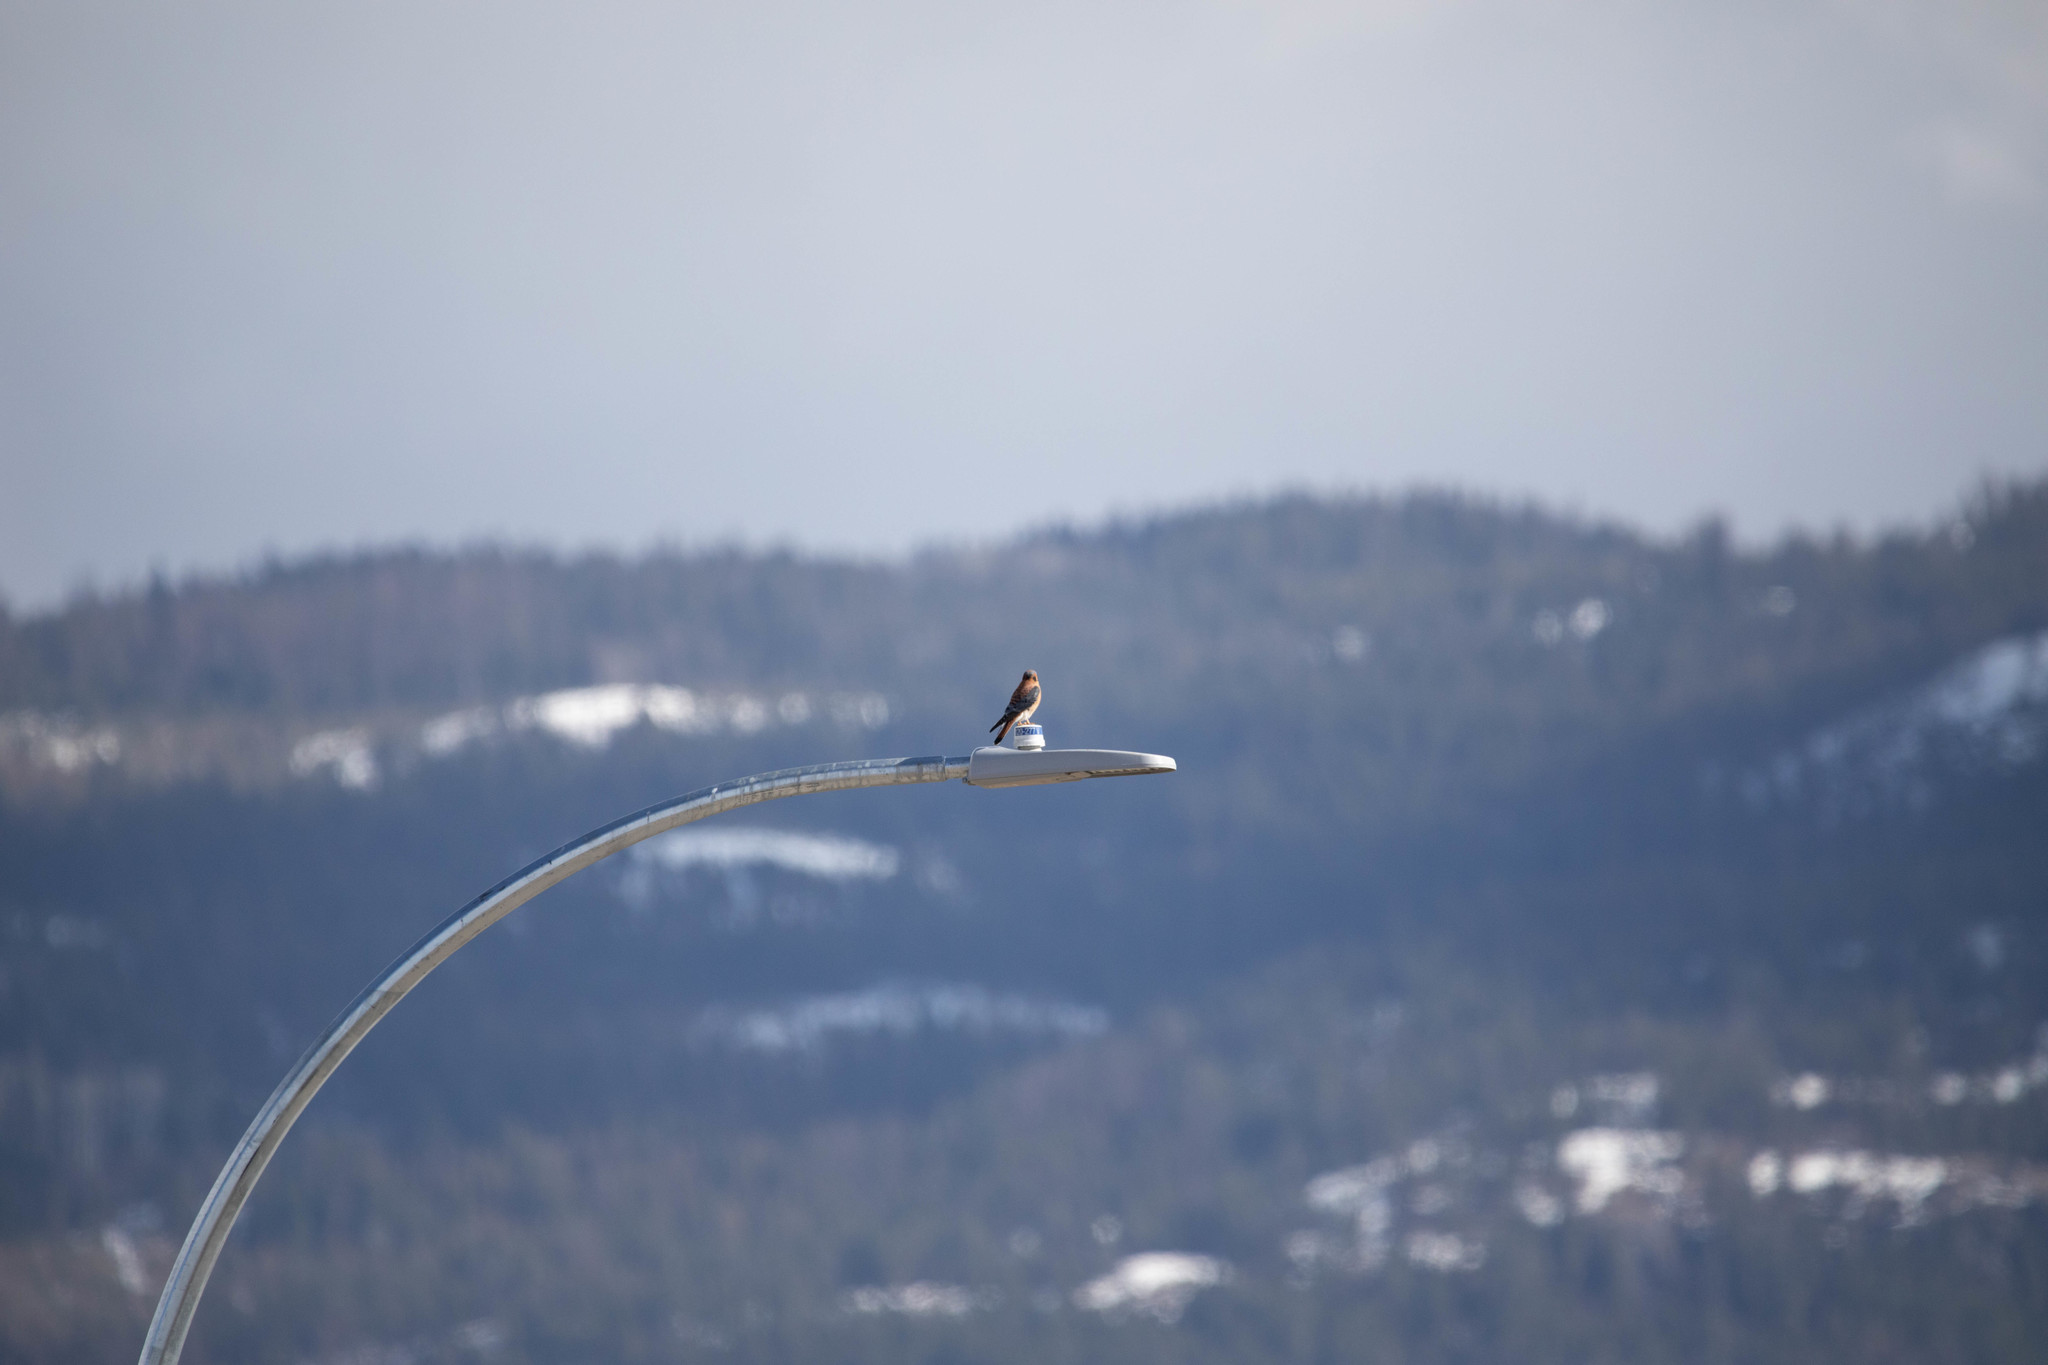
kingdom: Animalia
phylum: Chordata
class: Aves
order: Falconiformes
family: Falconidae
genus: Falco
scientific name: Falco sparverius
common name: American kestrel
